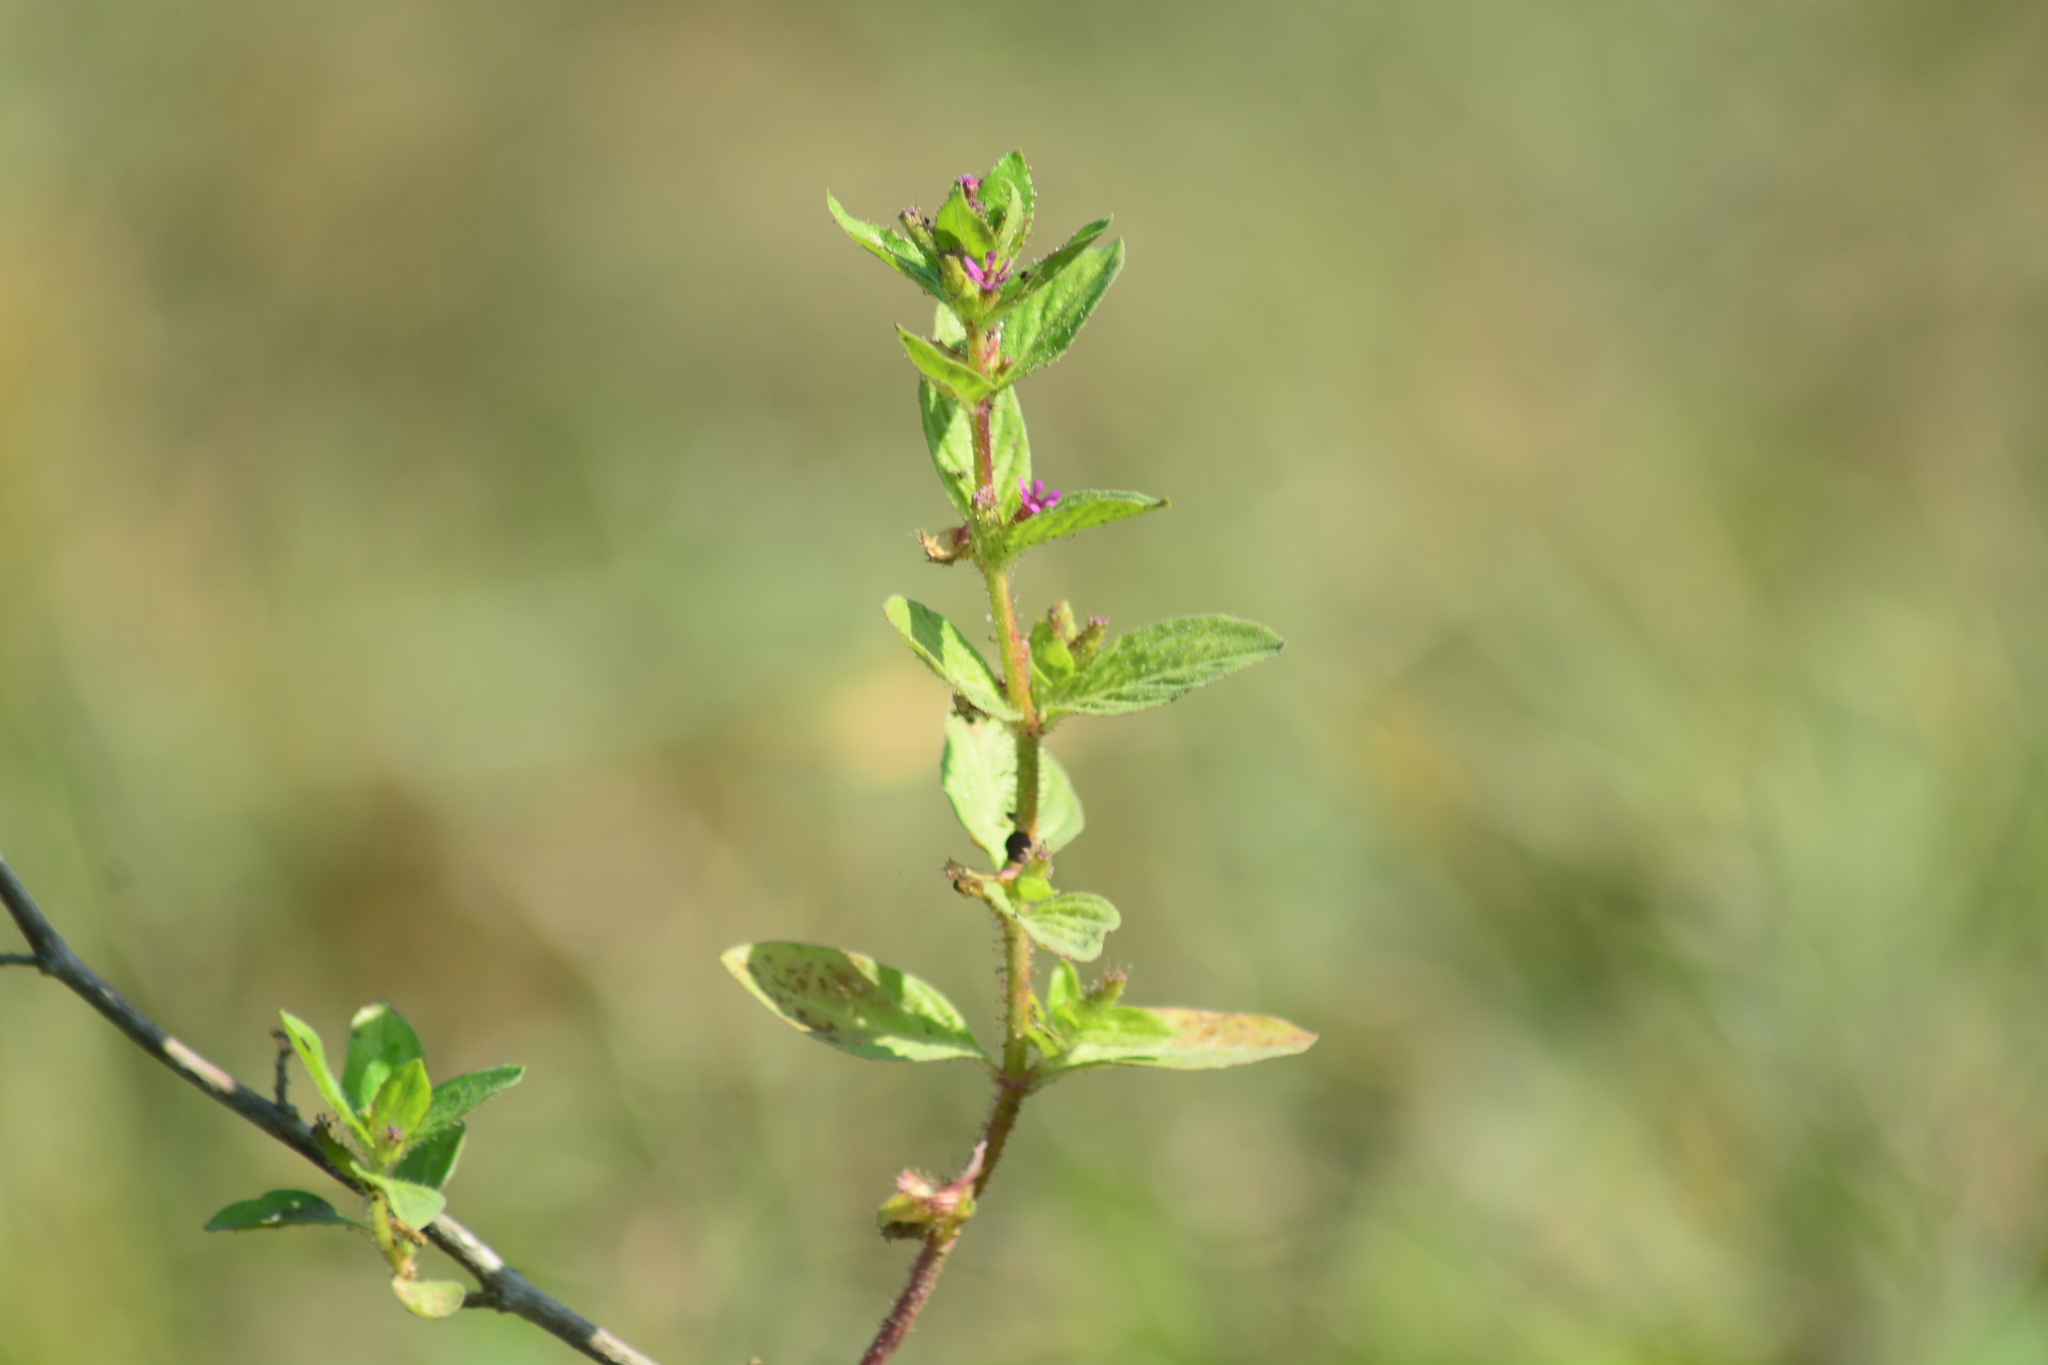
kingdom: Plantae
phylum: Tracheophyta
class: Magnoliopsida
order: Myrtales
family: Lythraceae
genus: Cuphea
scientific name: Cuphea carthagenensis
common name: Colombian waxweed
